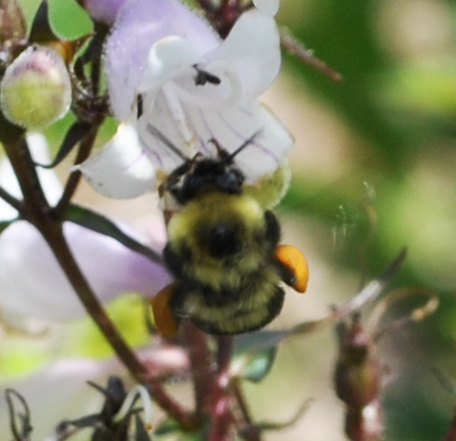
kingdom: Animalia
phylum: Arthropoda
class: Insecta
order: Hymenoptera
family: Apidae
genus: Bombus
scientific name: Bombus bimaculatus
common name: Two-spotted bumble bee
